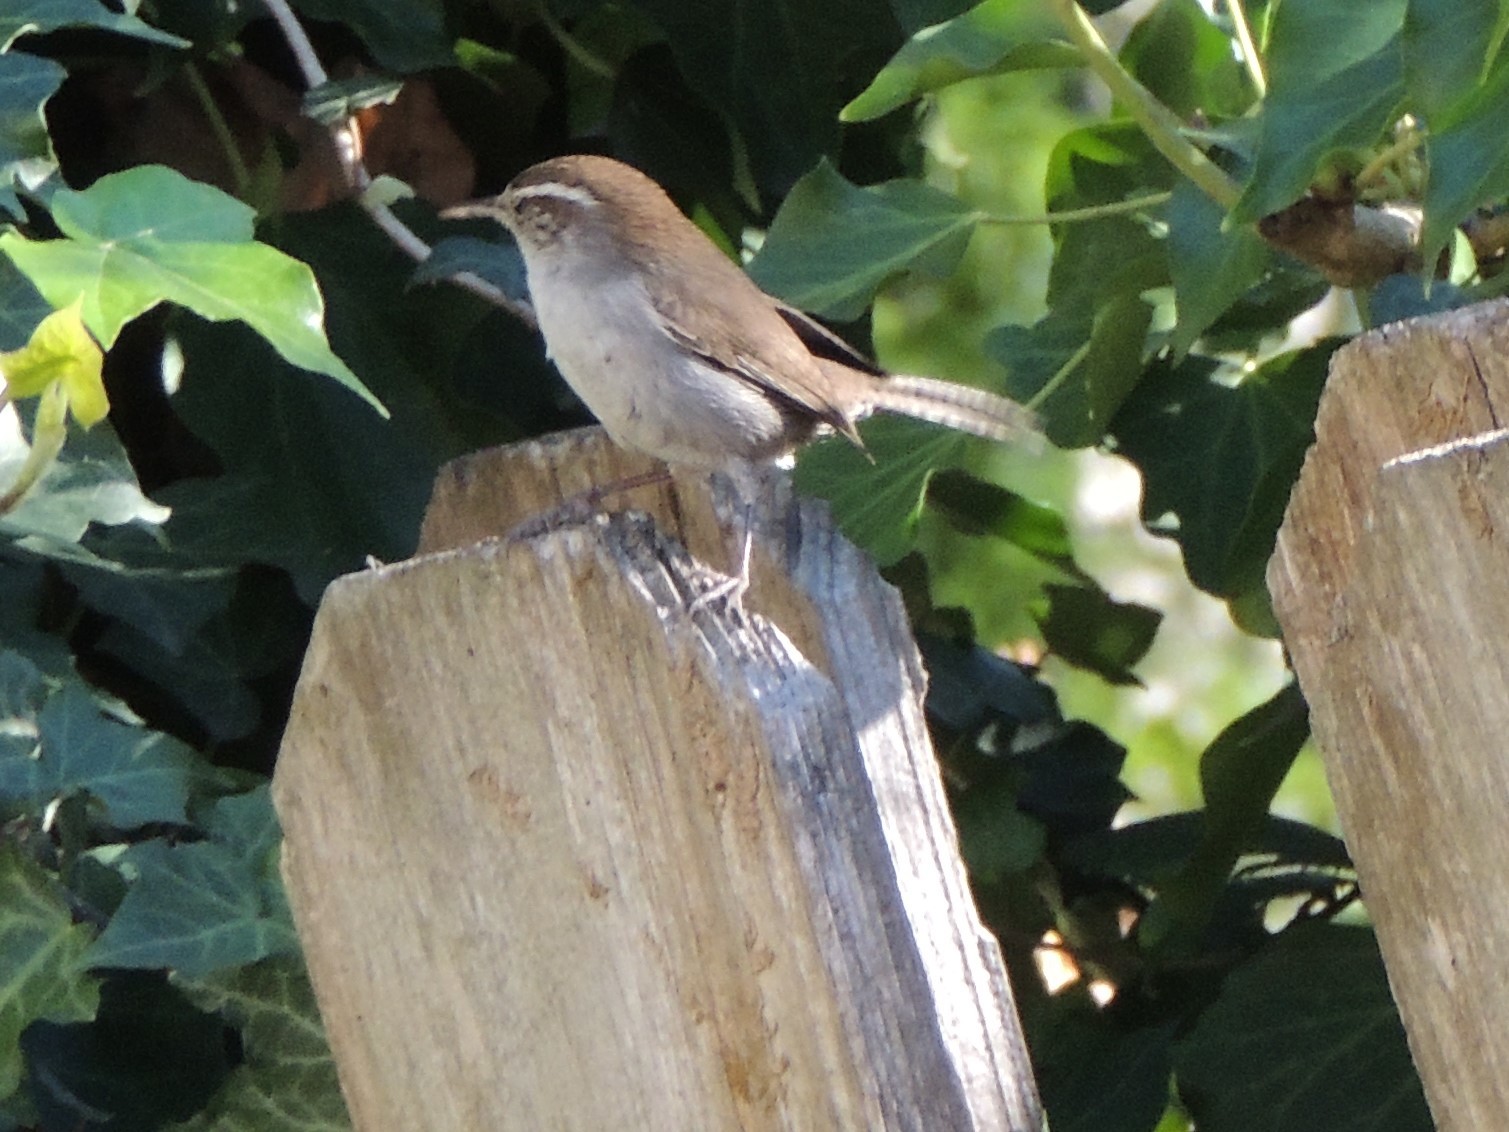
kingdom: Animalia
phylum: Chordata
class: Aves
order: Passeriformes
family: Troglodytidae
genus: Thryomanes
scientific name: Thryomanes bewickii
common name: Bewick's wren
